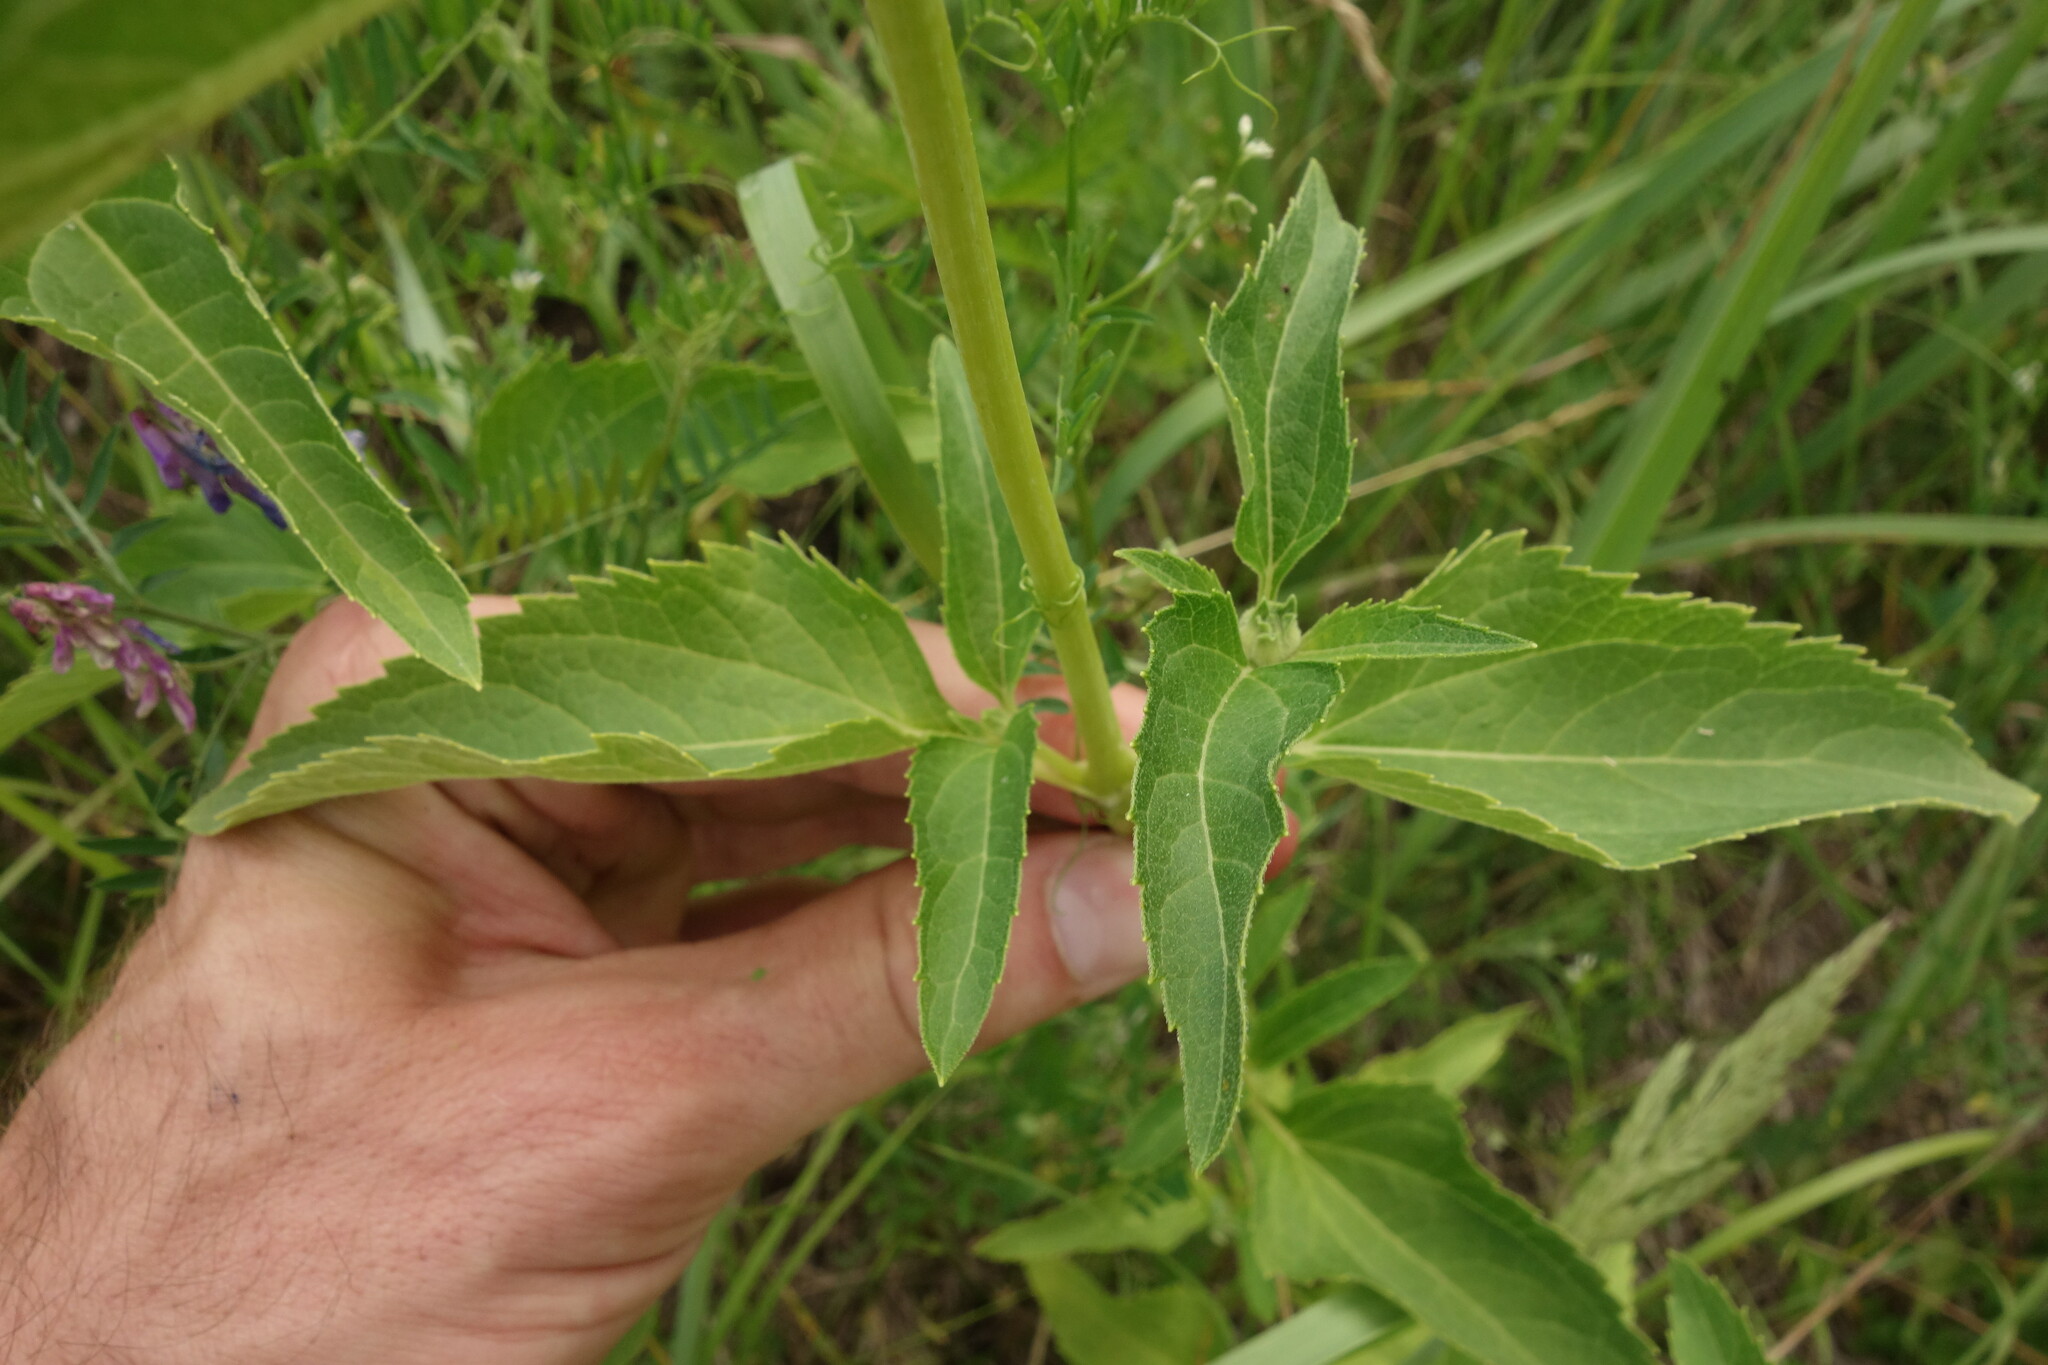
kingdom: Plantae
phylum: Tracheophyta
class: Magnoliopsida
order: Asterales
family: Asteraceae
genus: Heliopsis
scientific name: Heliopsis helianthoides
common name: False sunflower
